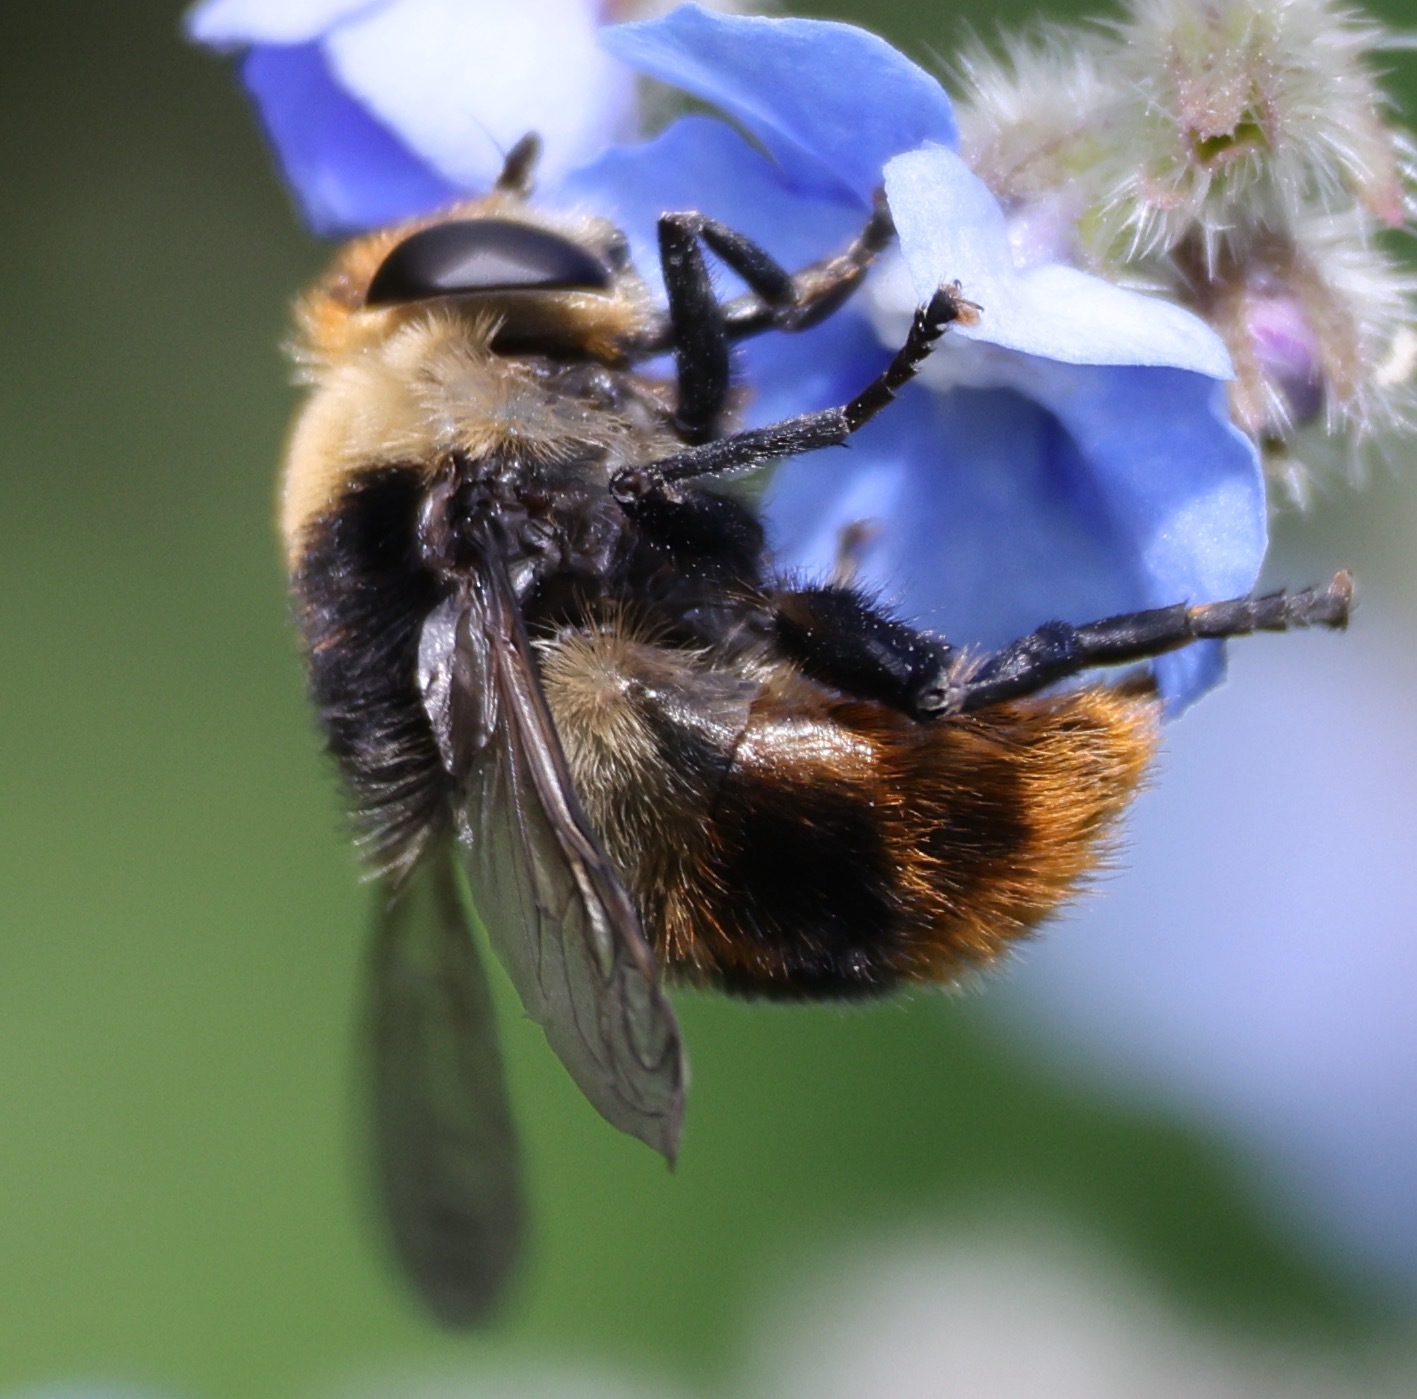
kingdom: Animalia
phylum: Arthropoda
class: Insecta
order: Diptera
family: Syrphidae
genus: Merodon
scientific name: Merodon equestris
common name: Greater bulb-fly
